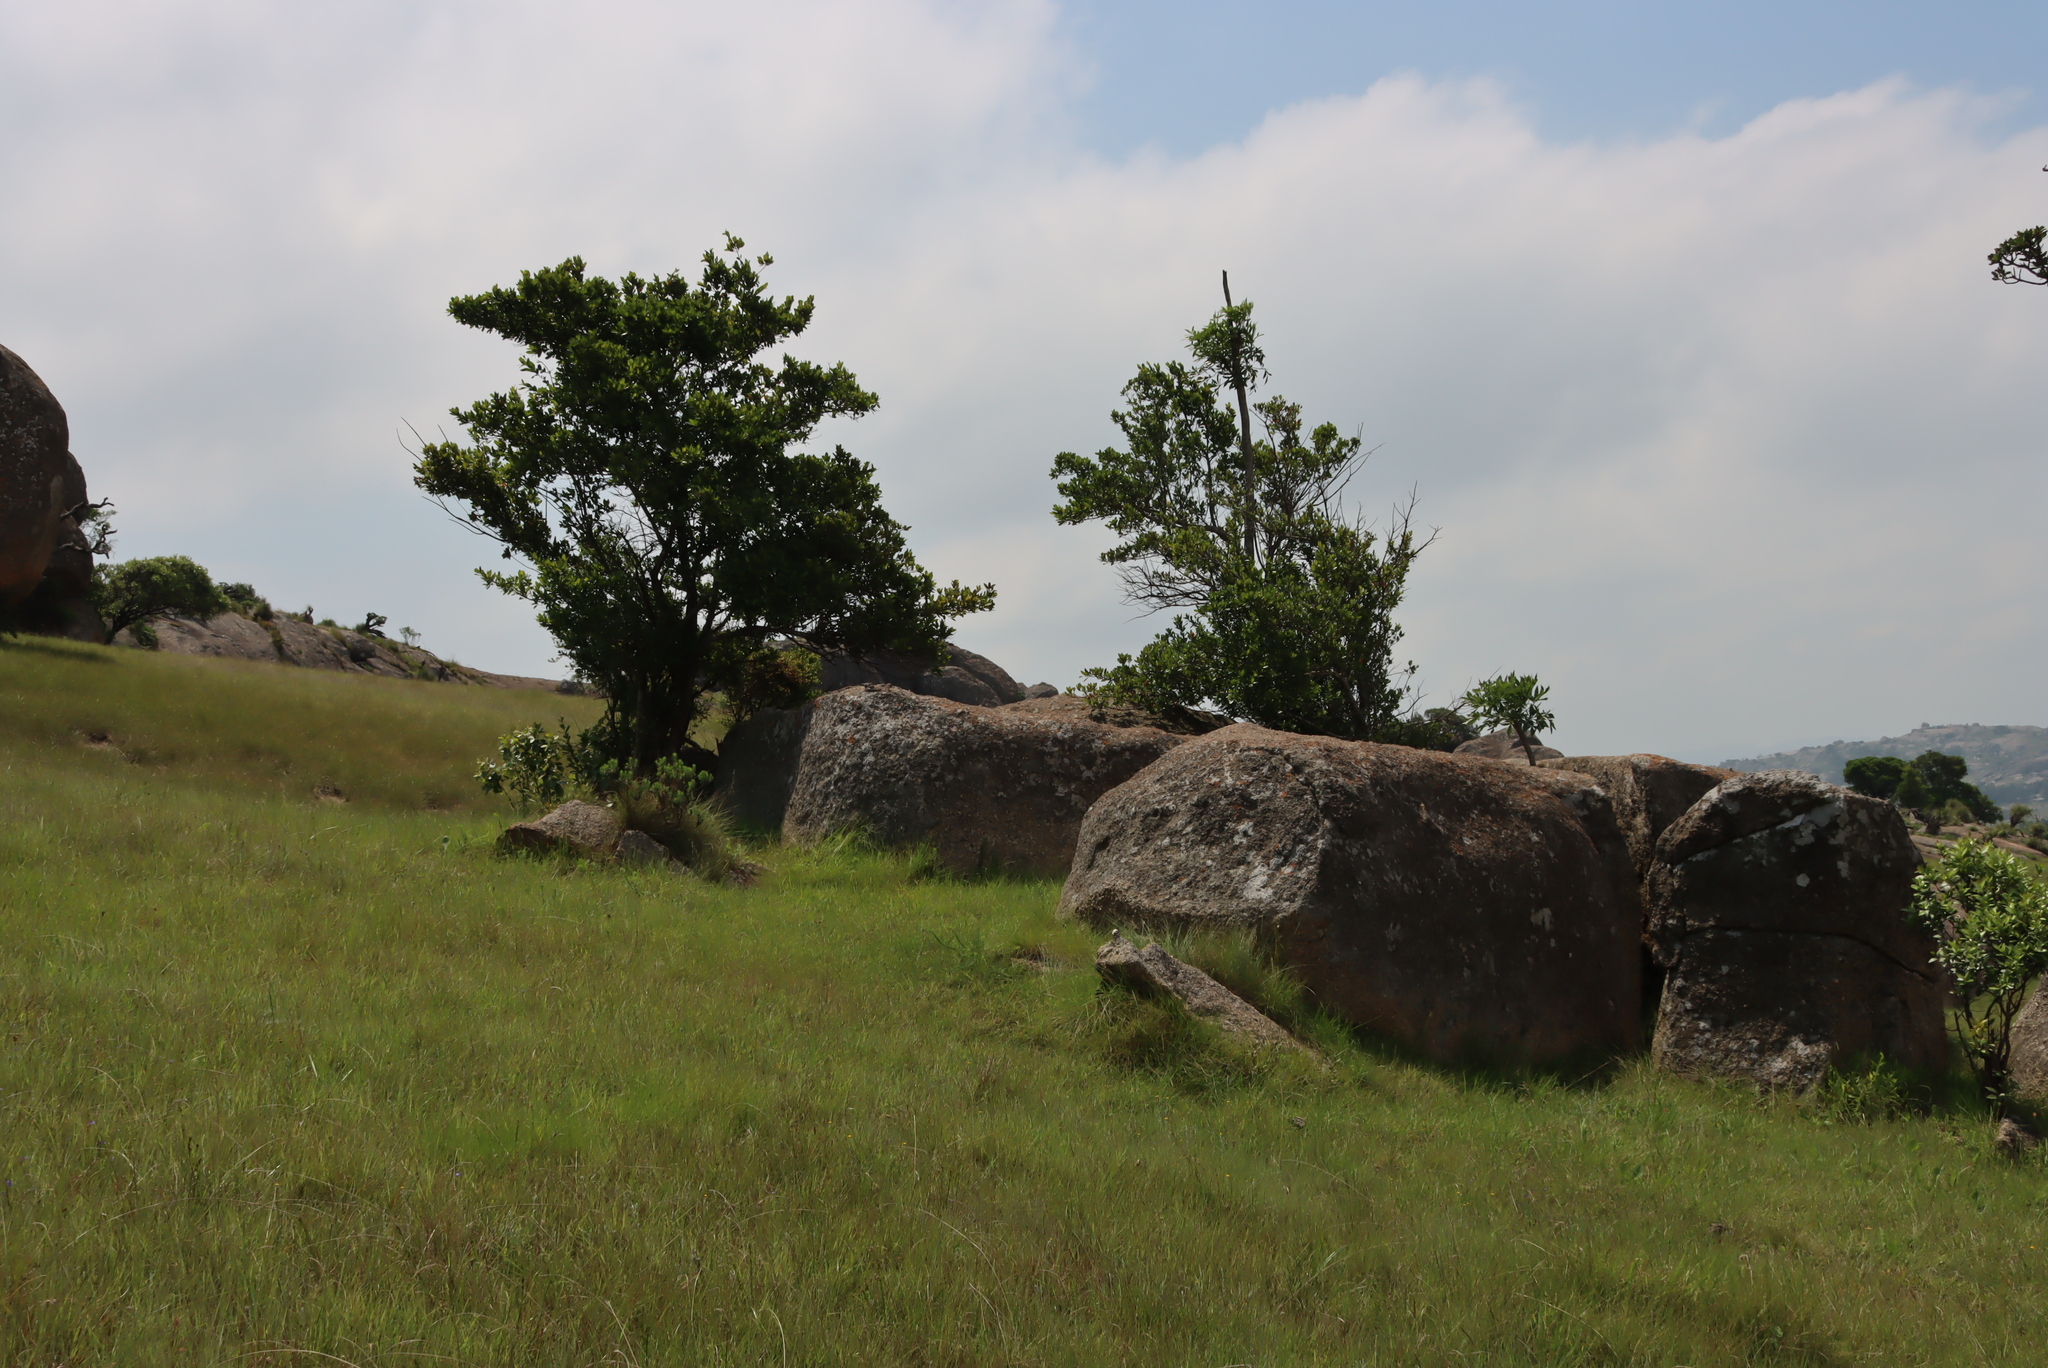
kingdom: Plantae
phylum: Tracheophyta
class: Magnoliopsida
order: Ericales
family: Primulaceae
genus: Myrsine
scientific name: Myrsine melanophloeos
